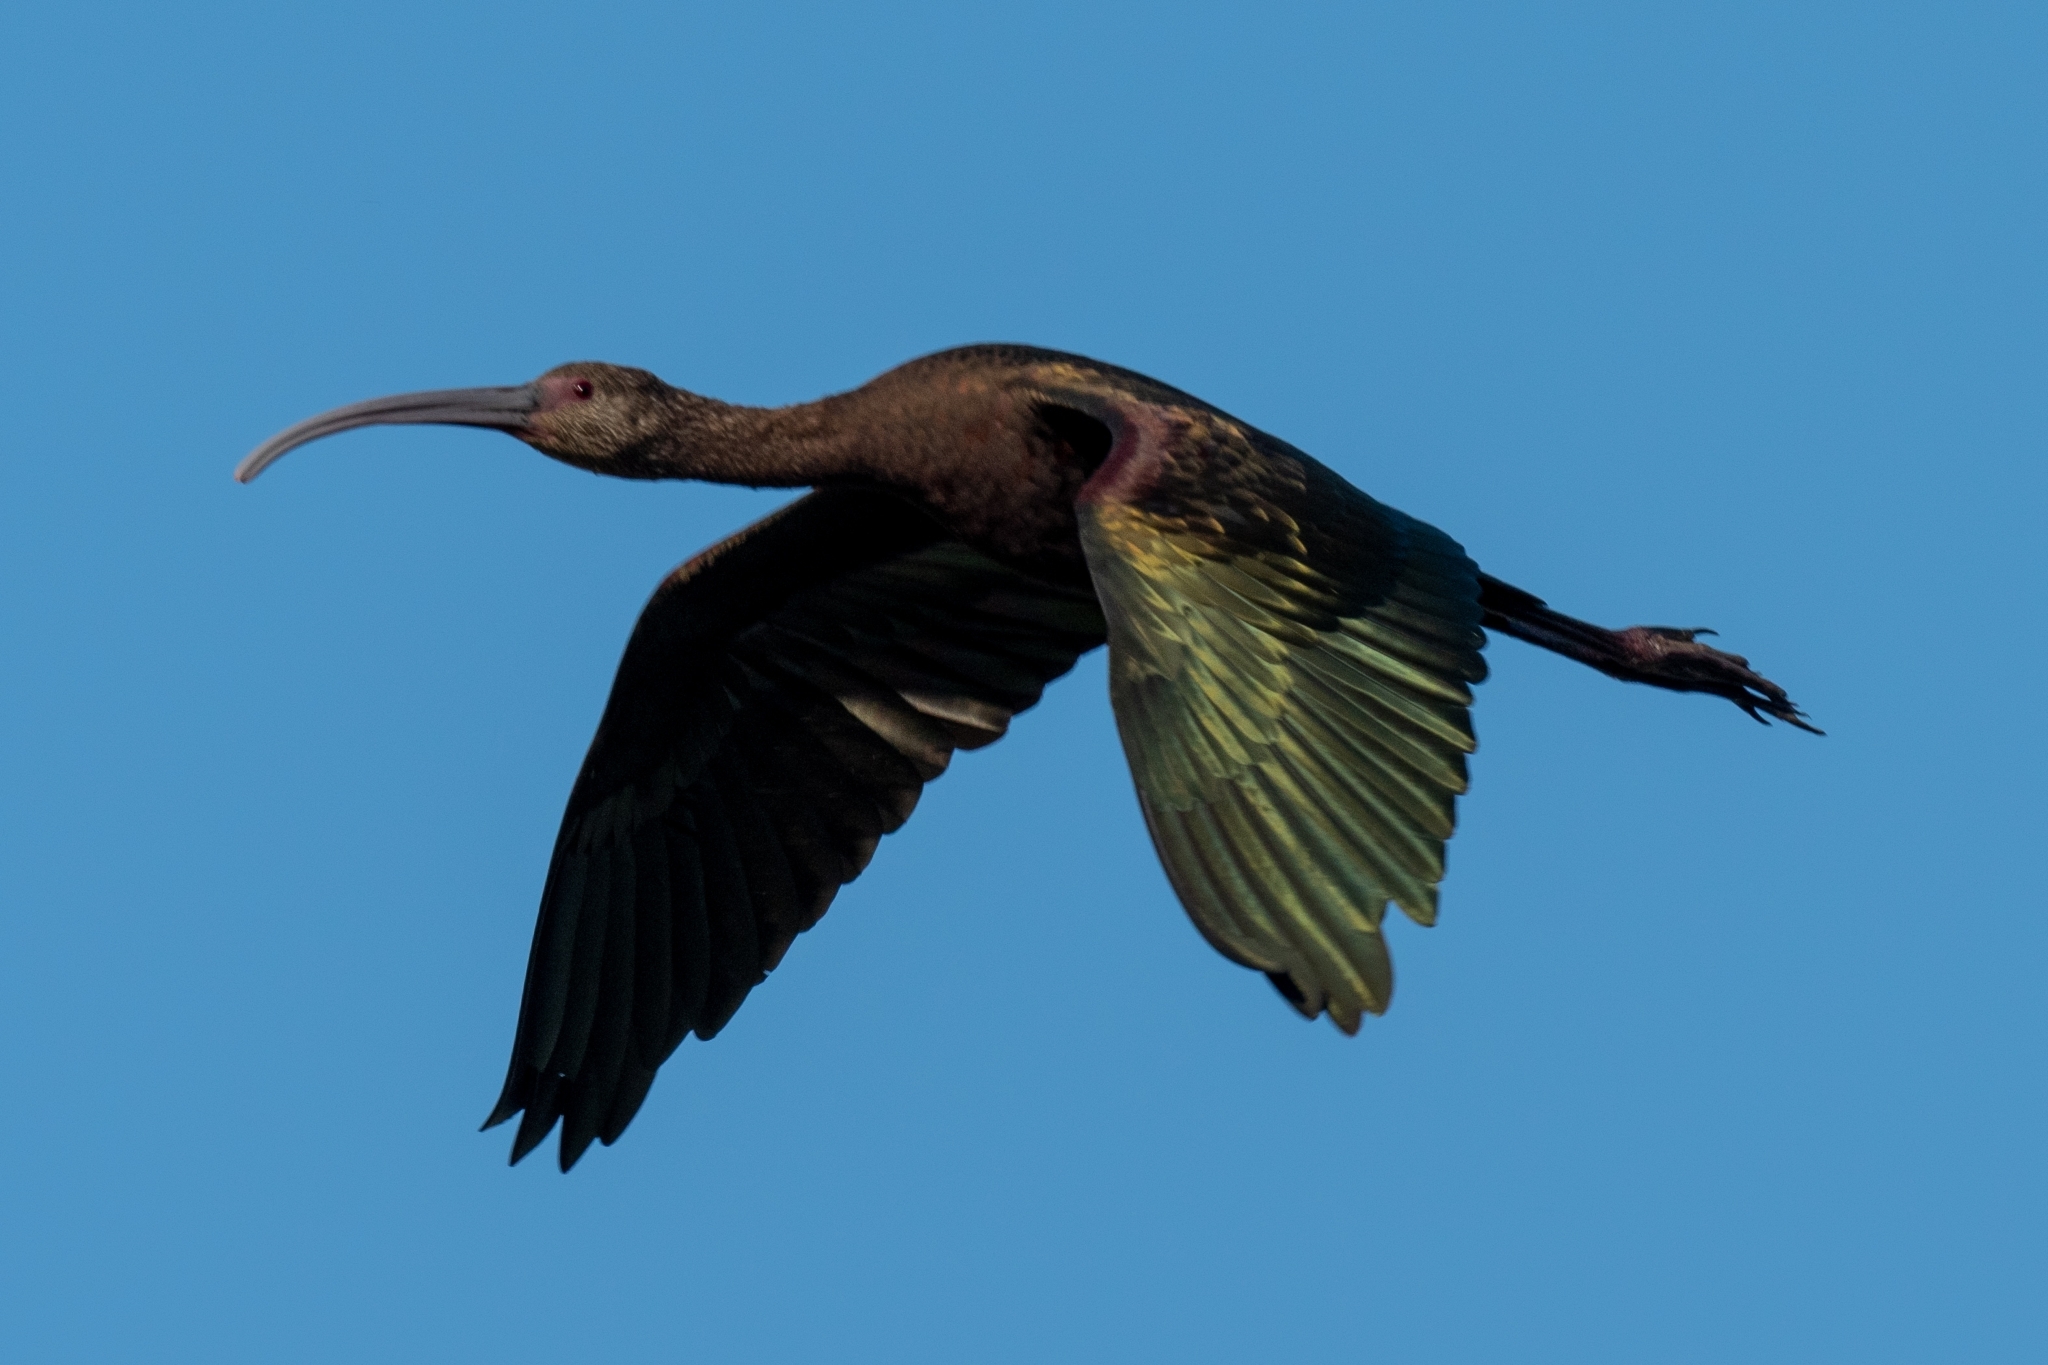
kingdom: Animalia
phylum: Chordata
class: Aves
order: Pelecaniformes
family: Threskiornithidae
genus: Plegadis
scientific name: Plegadis chihi
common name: White-faced ibis
